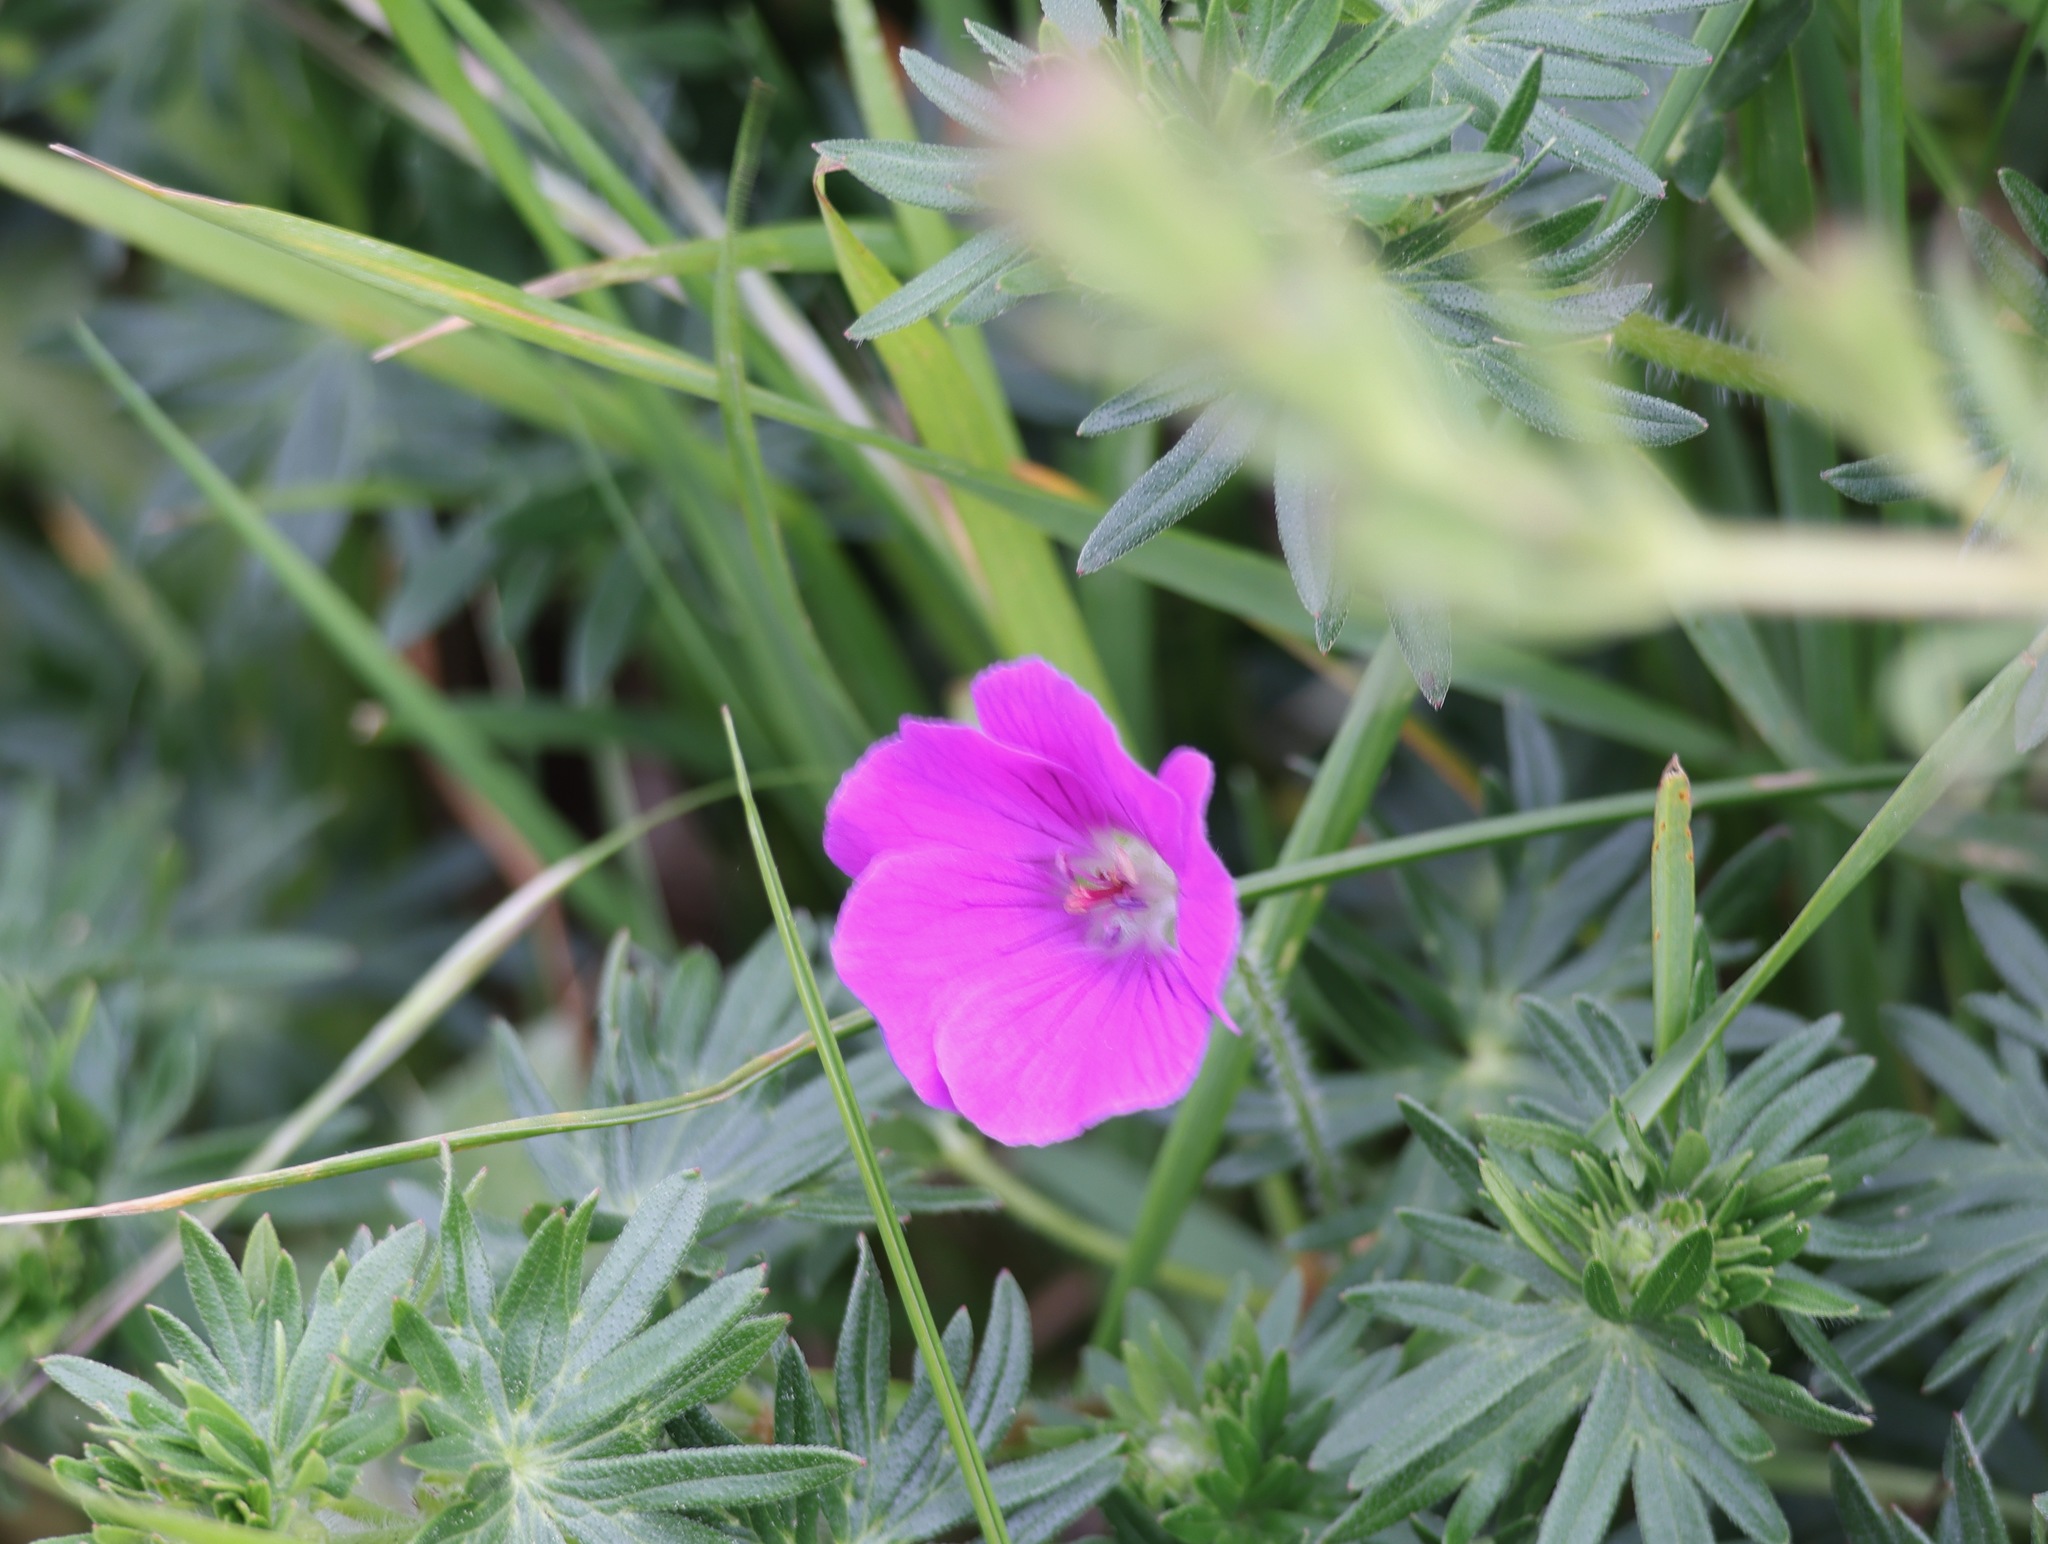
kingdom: Plantae
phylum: Tracheophyta
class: Magnoliopsida
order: Geraniales
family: Geraniaceae
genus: Geranium
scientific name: Geranium sanguineum
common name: Bloody crane's-bill
